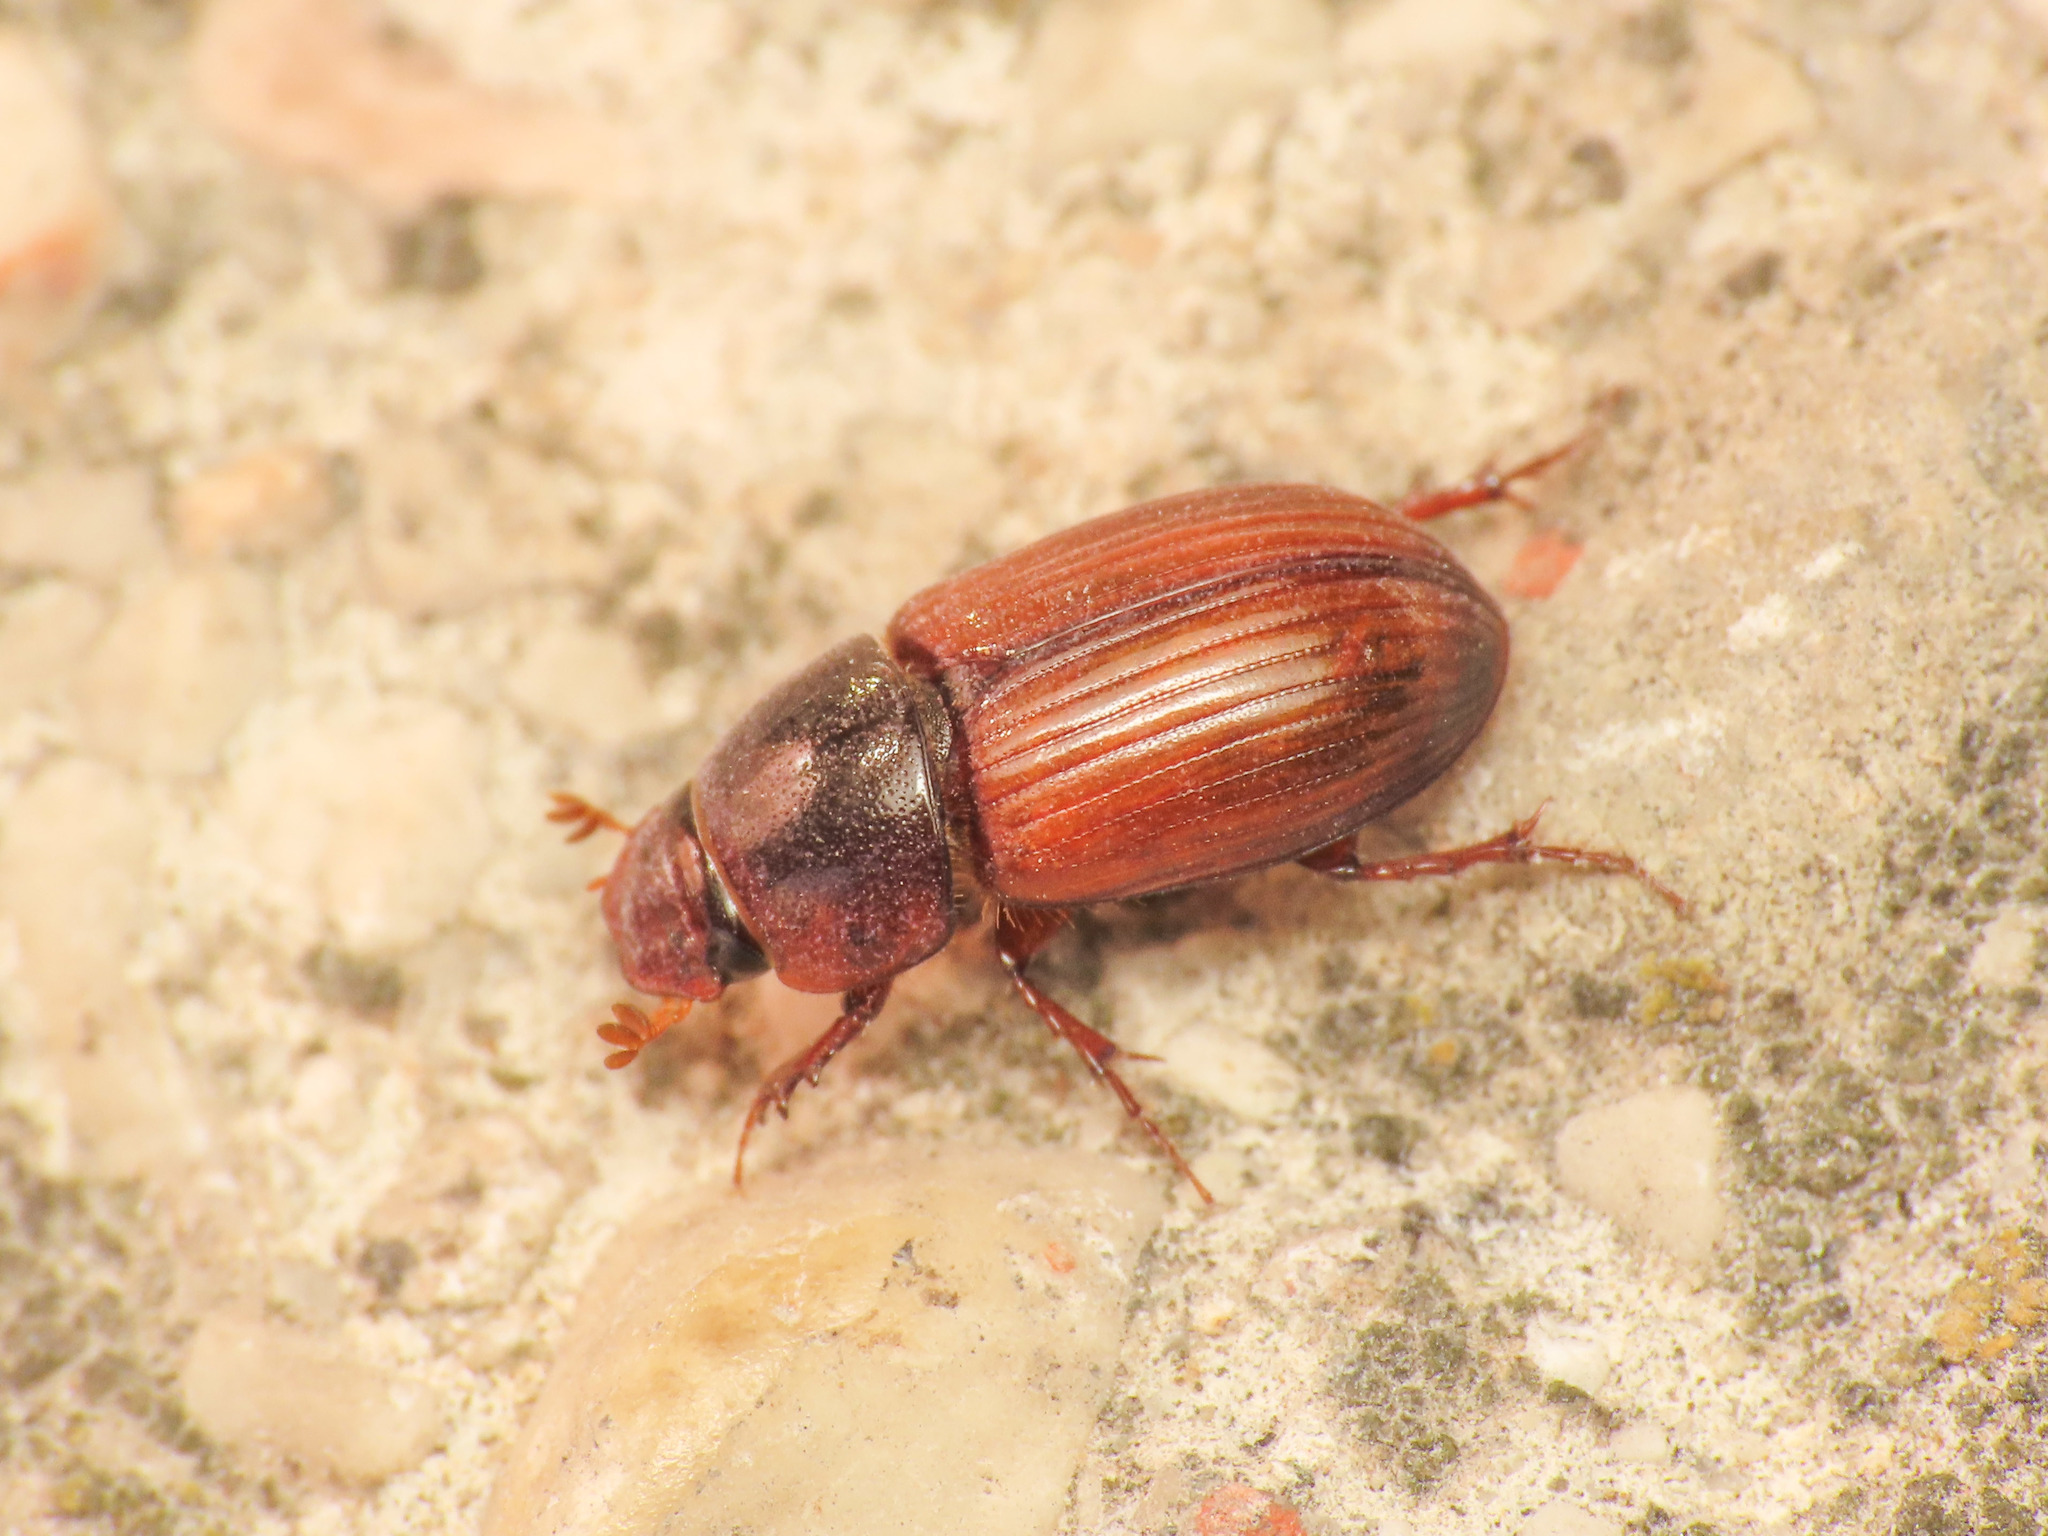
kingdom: Animalia
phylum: Arthropoda
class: Insecta
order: Coleoptera
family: Scarabaeidae
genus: Bodilopsis
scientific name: Bodilopsis rufus
